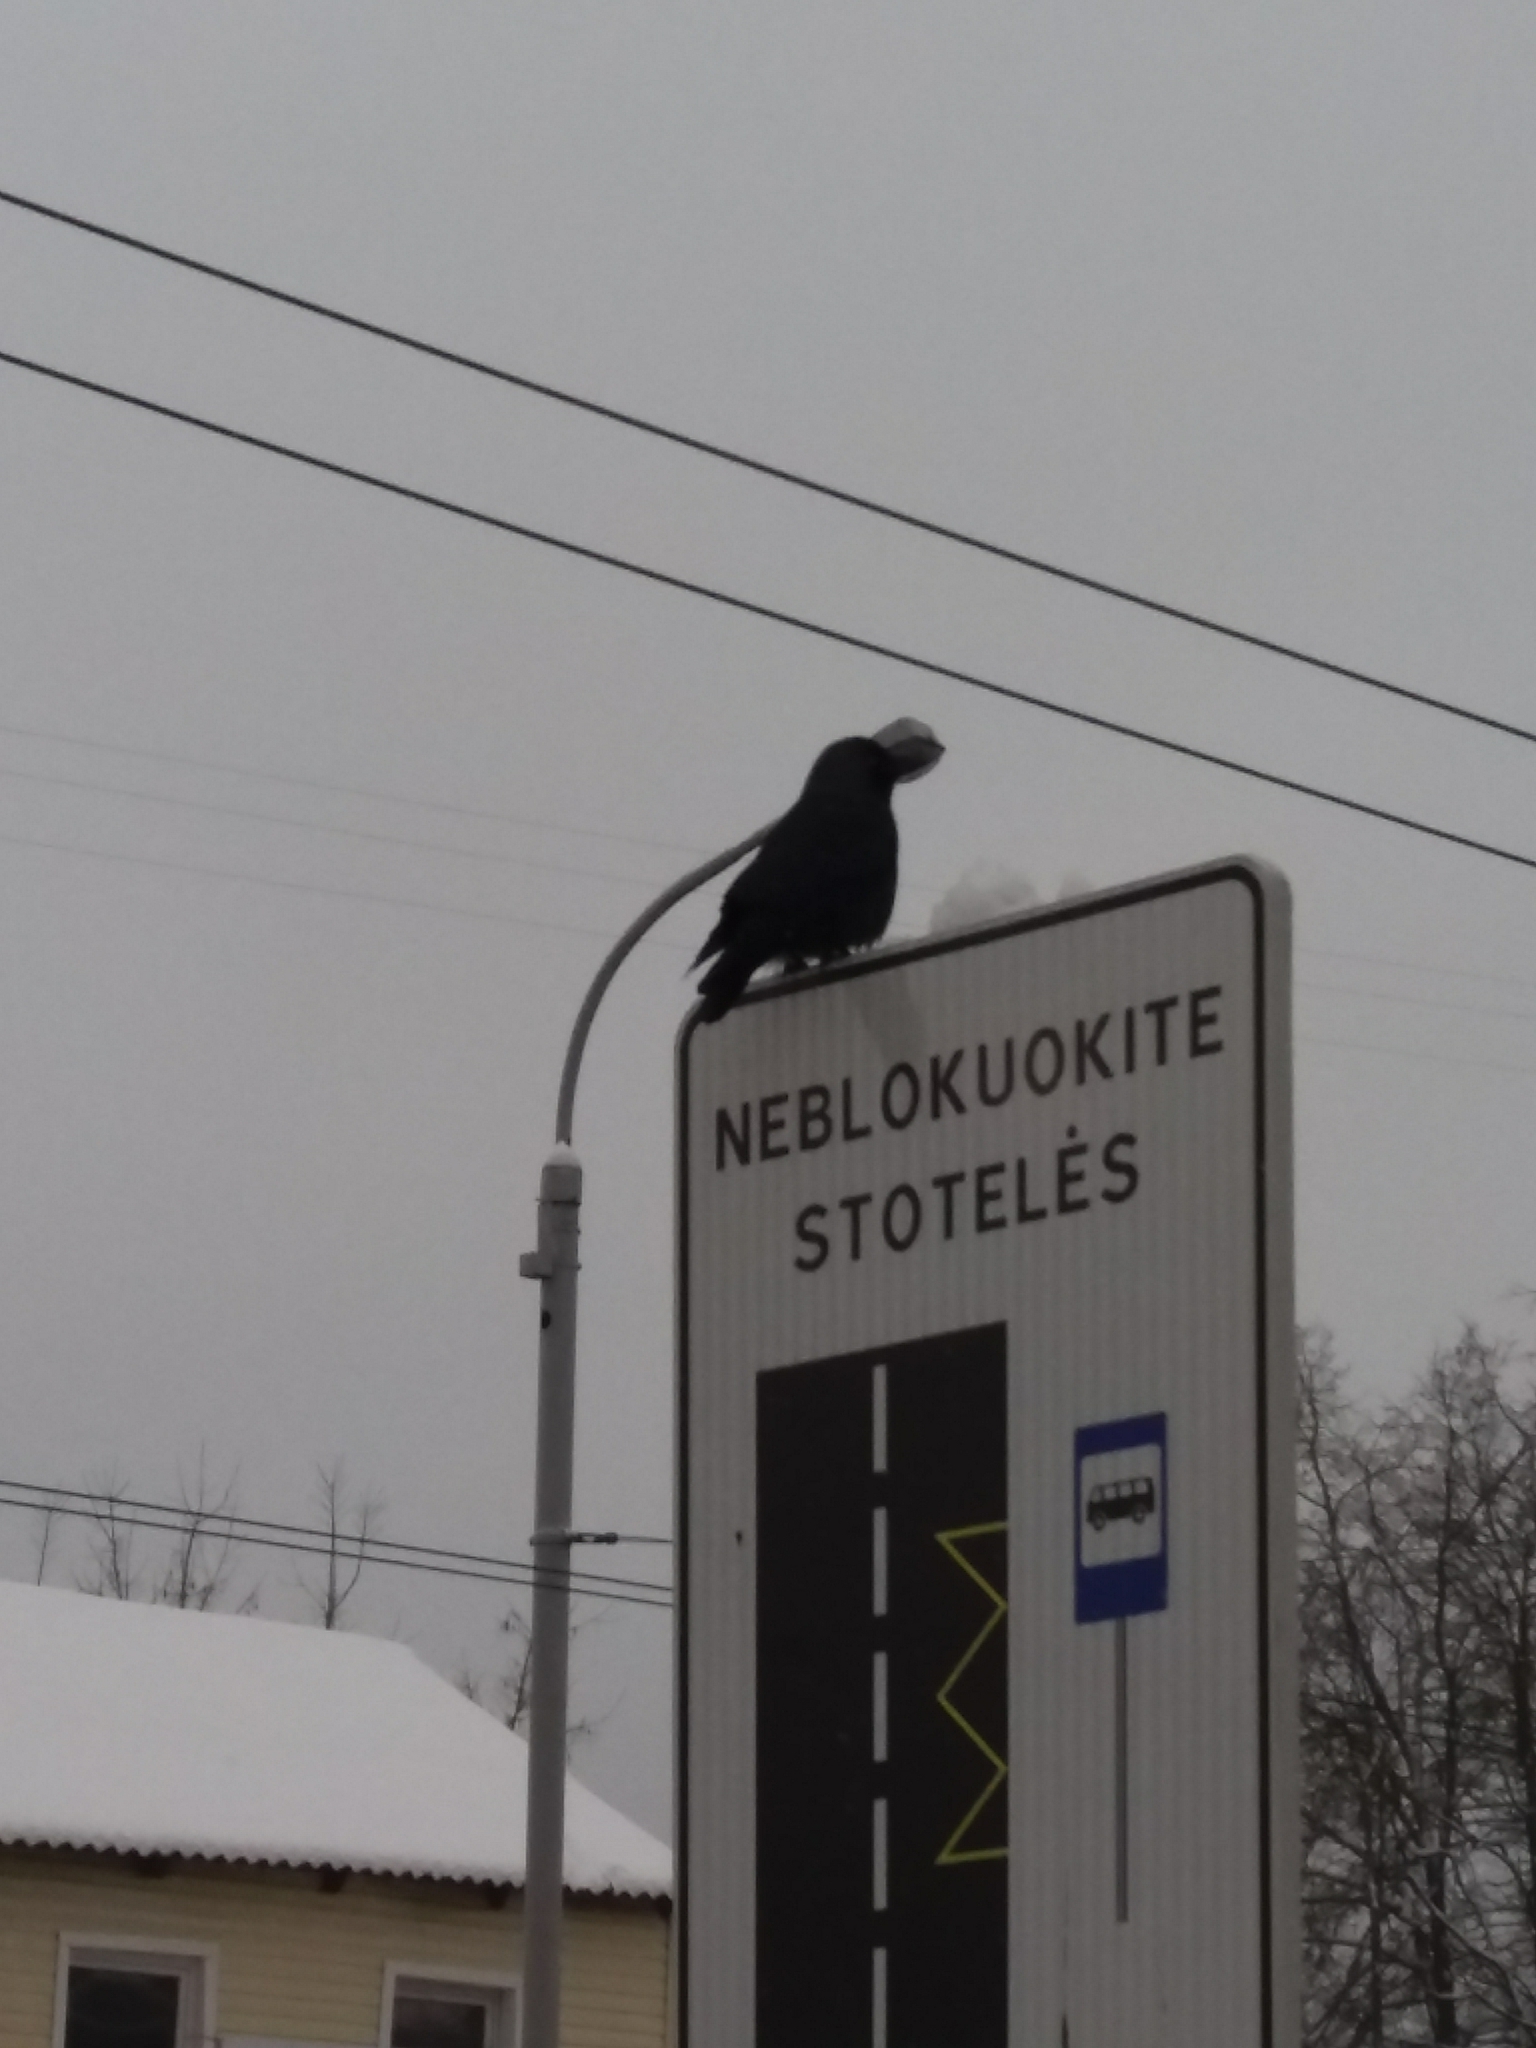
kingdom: Animalia
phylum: Chordata
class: Aves
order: Passeriformes
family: Corvidae
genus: Coloeus
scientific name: Coloeus monedula
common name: Western jackdaw
